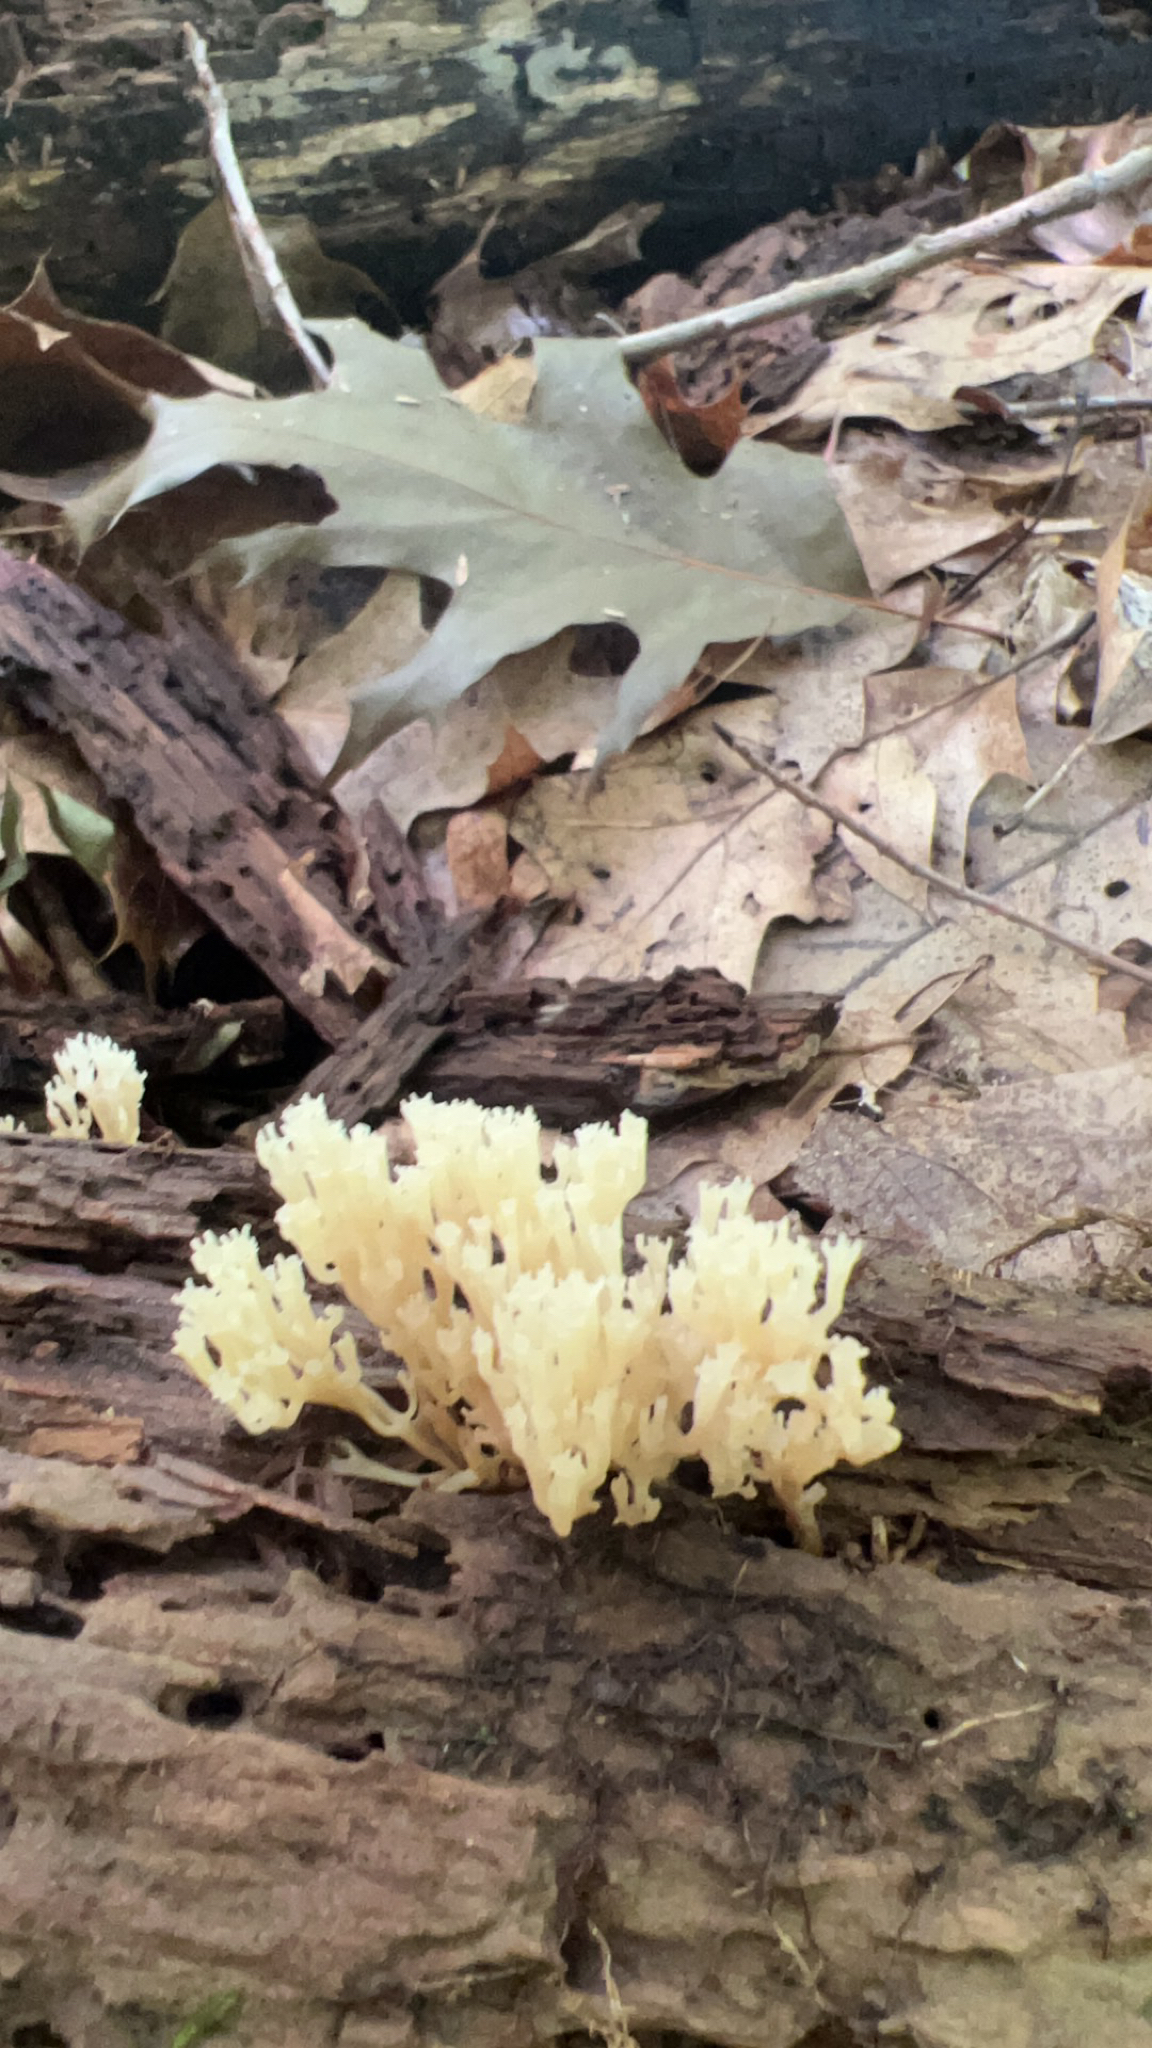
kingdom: Fungi
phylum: Basidiomycota
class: Agaricomycetes
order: Russulales
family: Auriscalpiaceae
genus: Artomyces
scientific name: Artomyces pyxidatus
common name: Crown-tipped coral fungus
